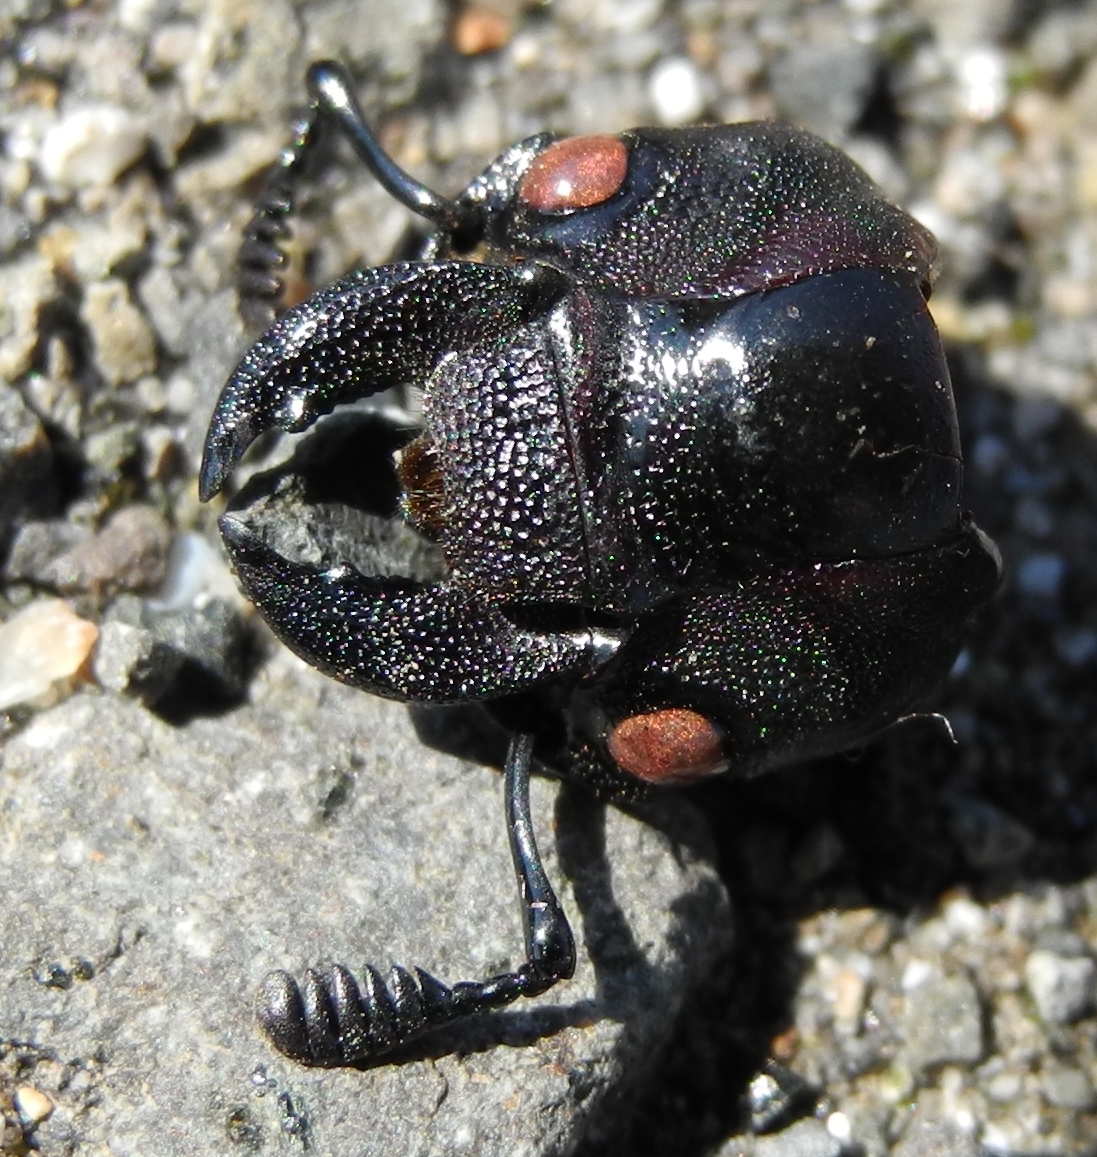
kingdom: Animalia
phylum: Arthropoda
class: Insecta
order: Coleoptera
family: Lucanidae
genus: Lucanus
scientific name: Lucanus cervus
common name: Stag beetle
